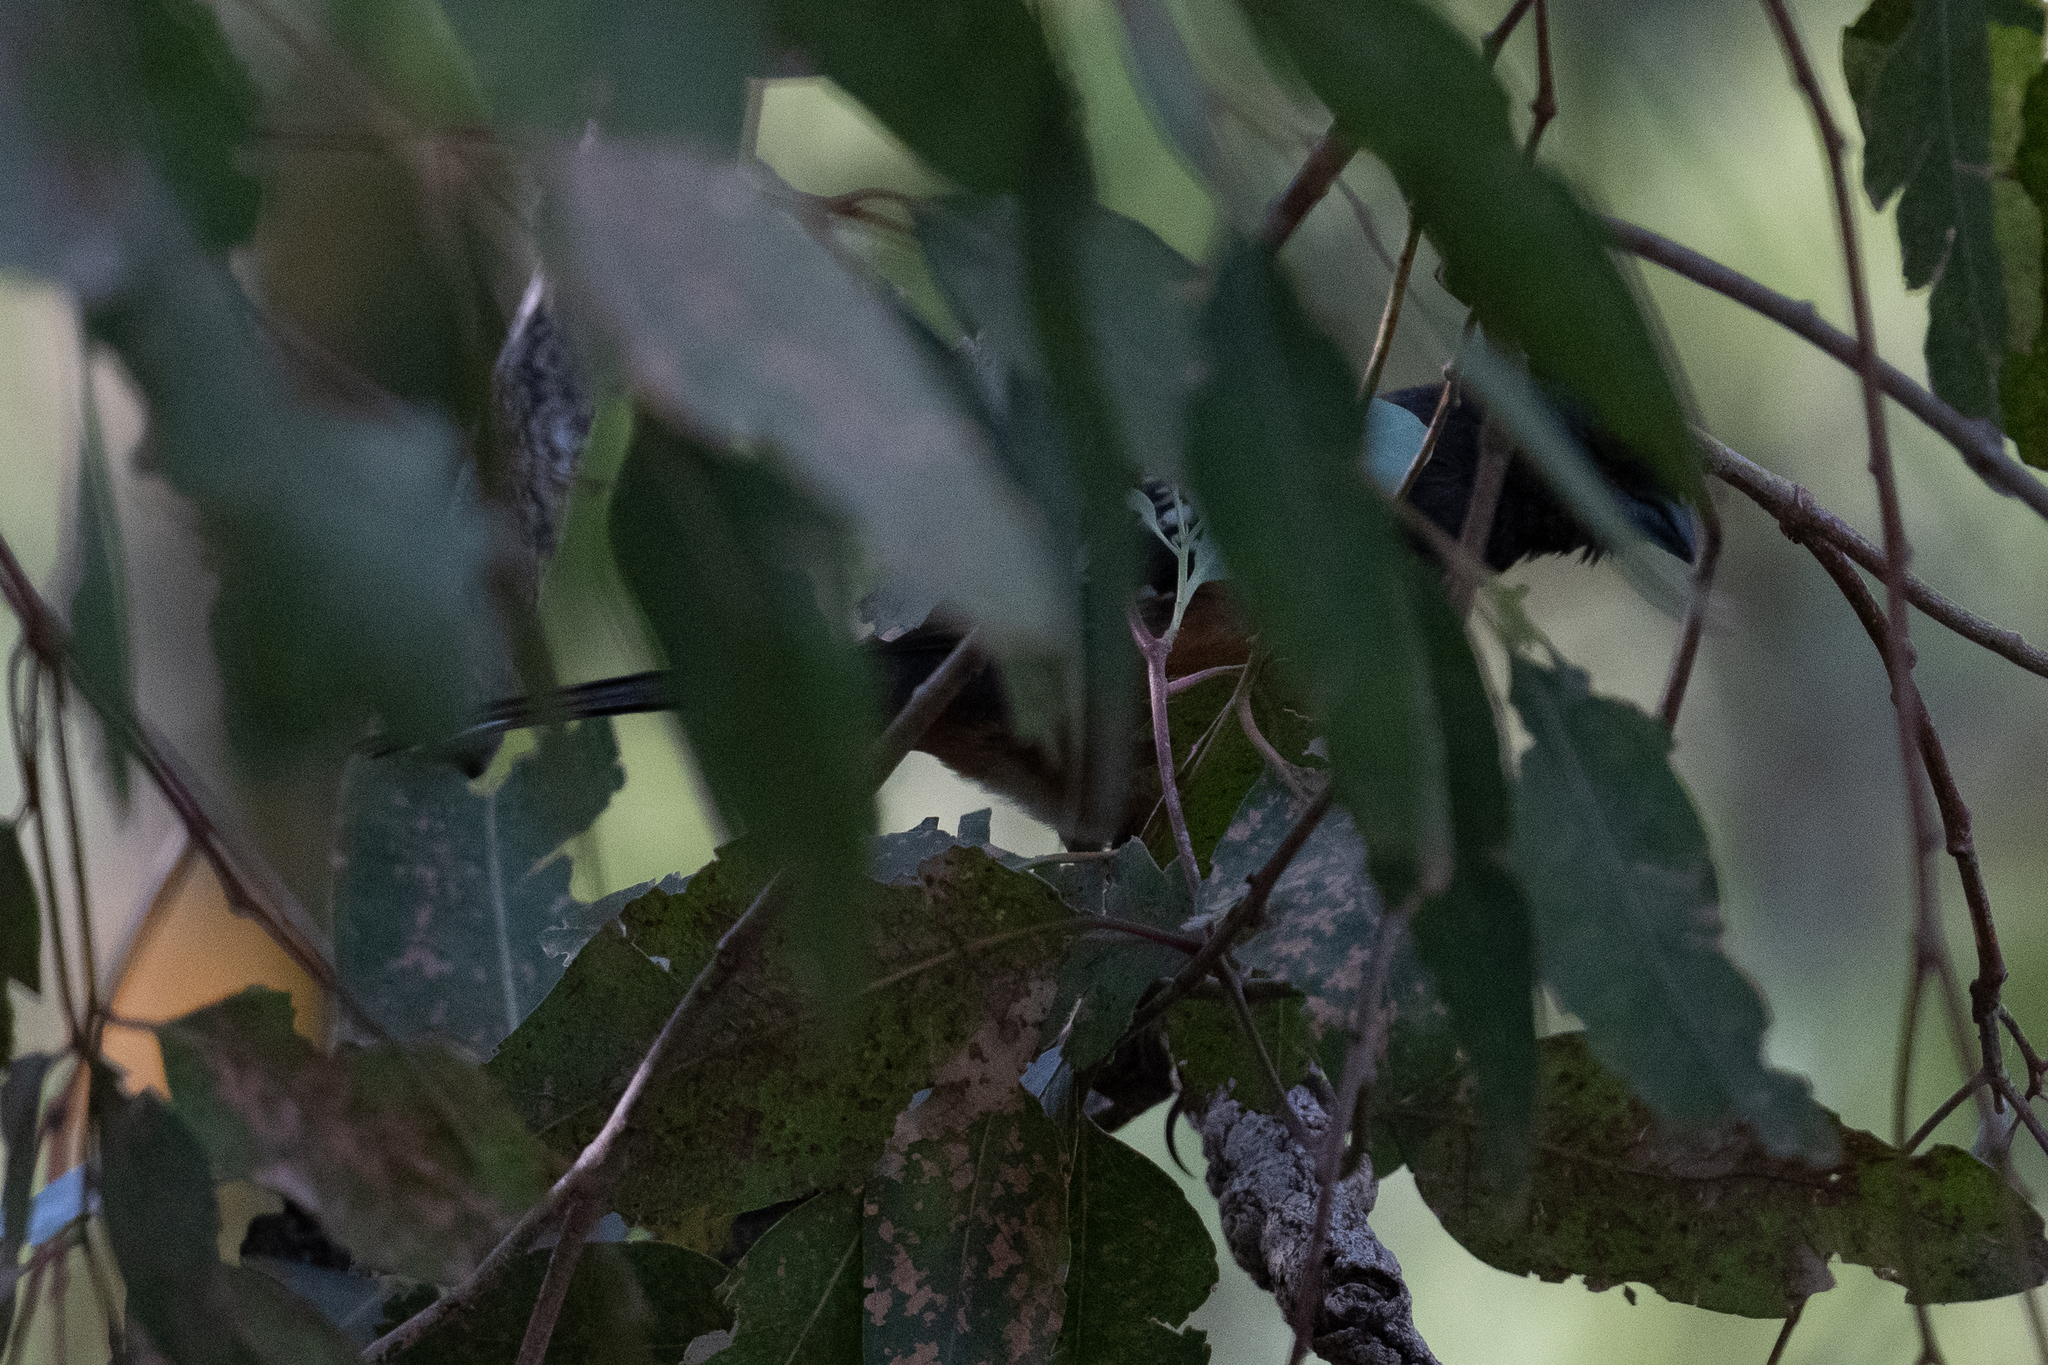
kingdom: Animalia
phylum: Chordata
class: Aves
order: Passeriformes
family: Passerellidae
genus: Pipilo
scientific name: Pipilo maculatus
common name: Spotted towhee
